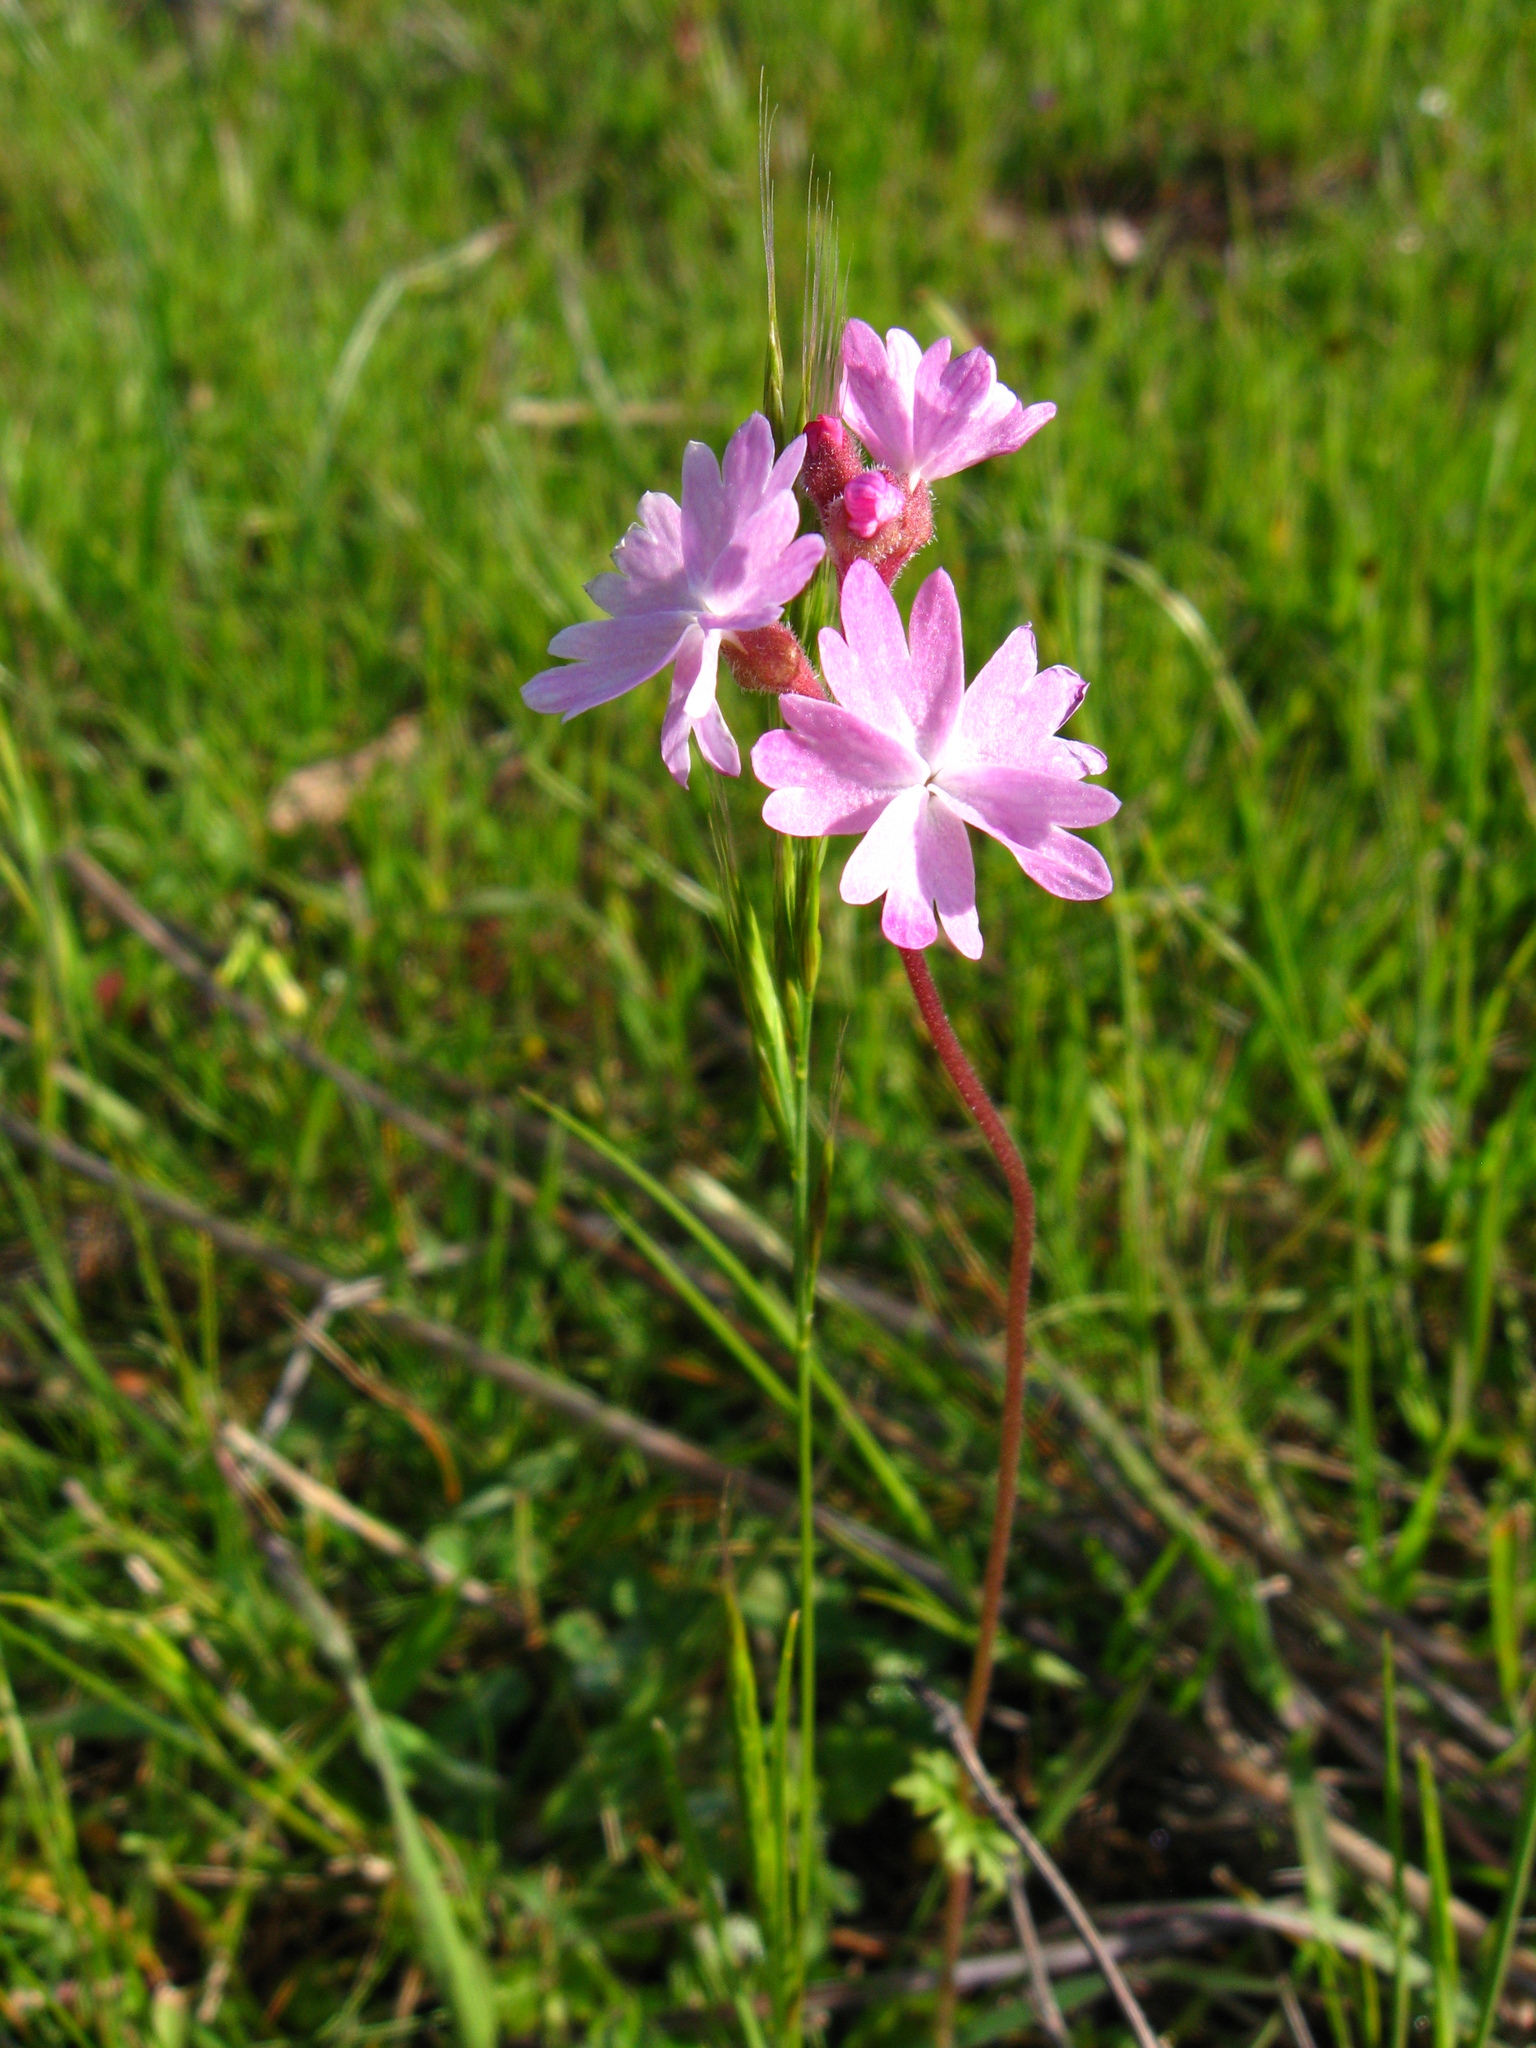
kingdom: Plantae
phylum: Tracheophyta
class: Magnoliopsida
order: Saxifragales
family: Saxifragaceae
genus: Lithophragma
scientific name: Lithophragma trifoliatum
